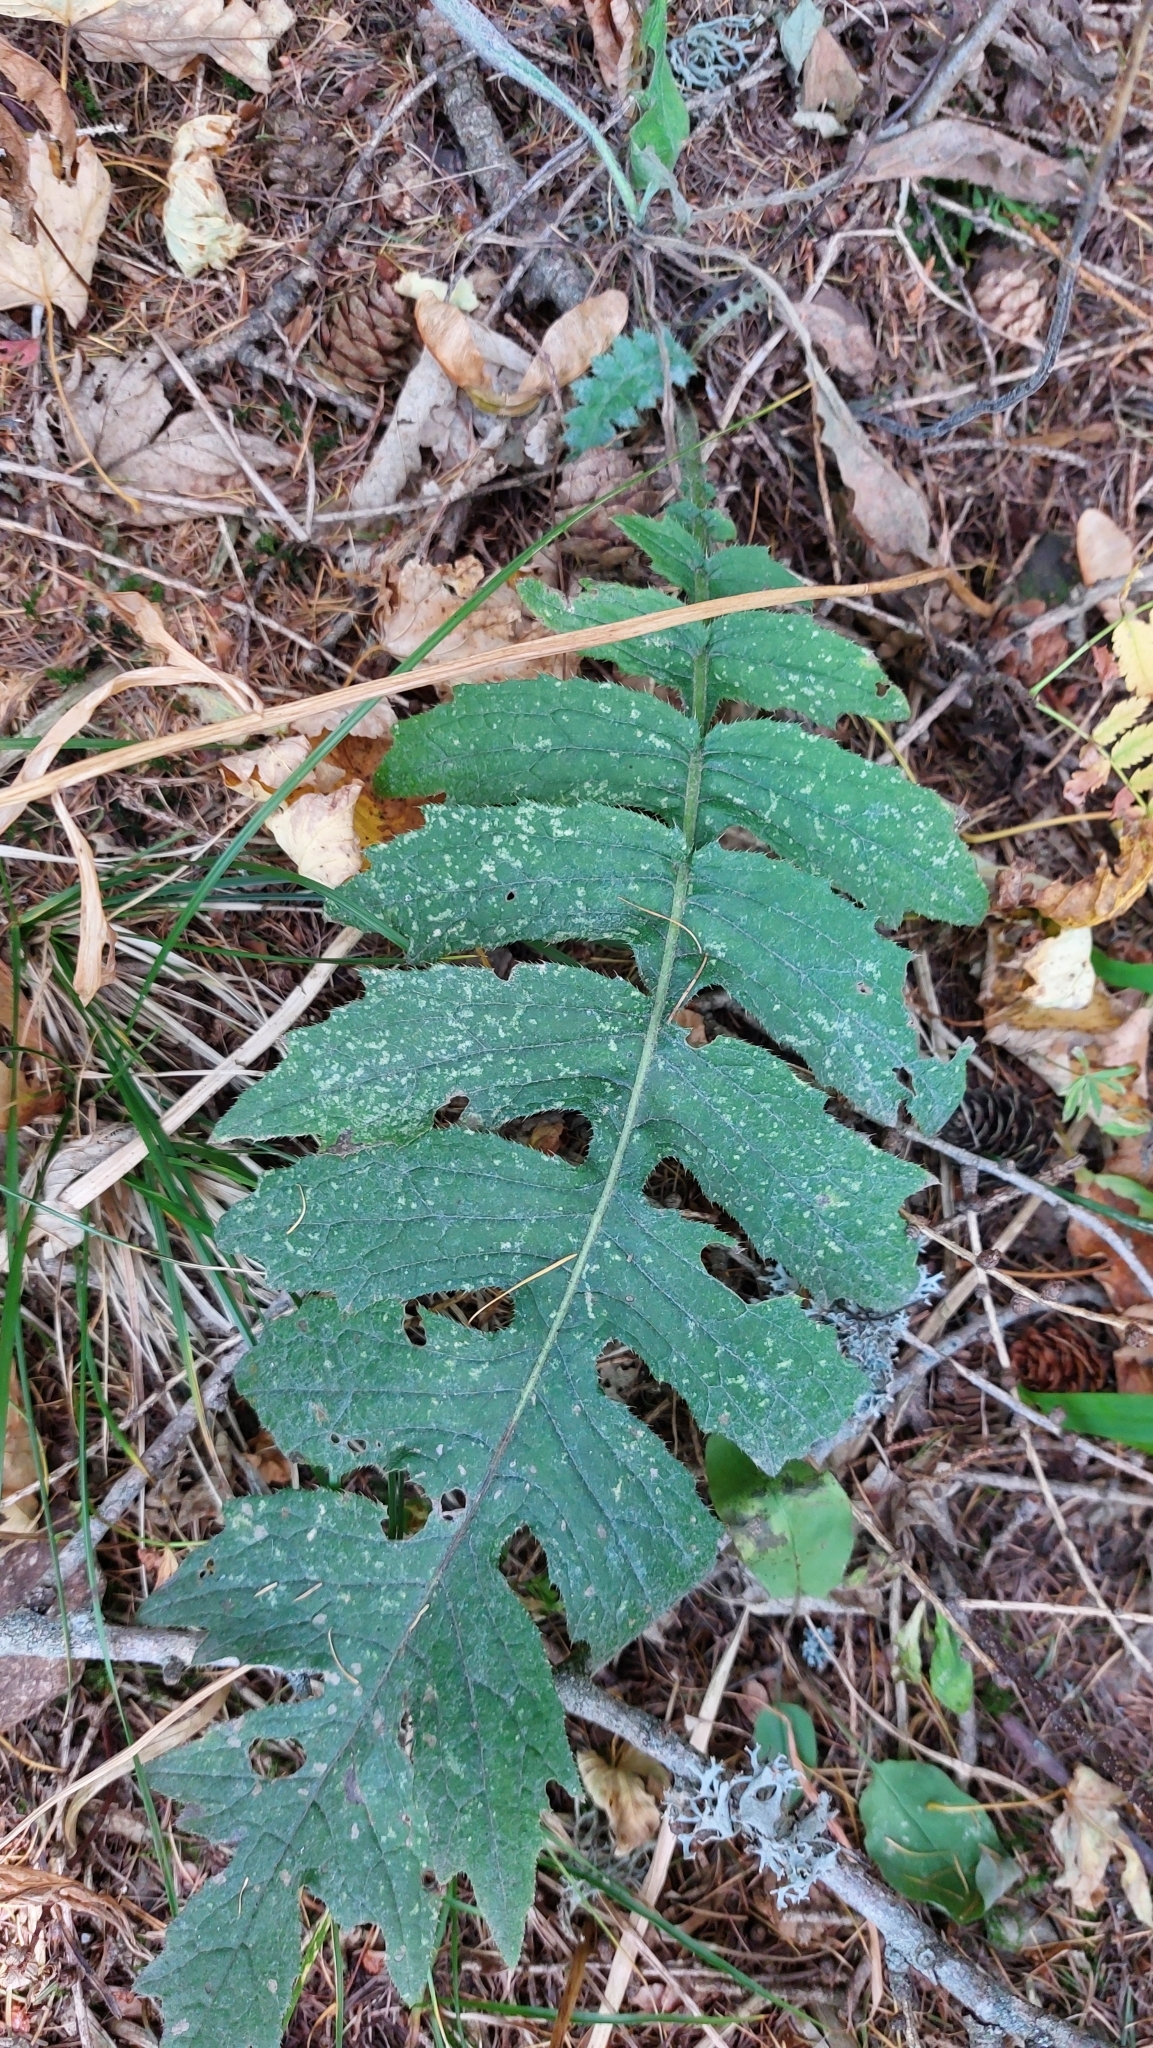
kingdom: Plantae
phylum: Tracheophyta
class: Magnoliopsida
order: Asterales
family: Asteraceae
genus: Cirsium
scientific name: Cirsium erisithales
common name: Yellow thistle
